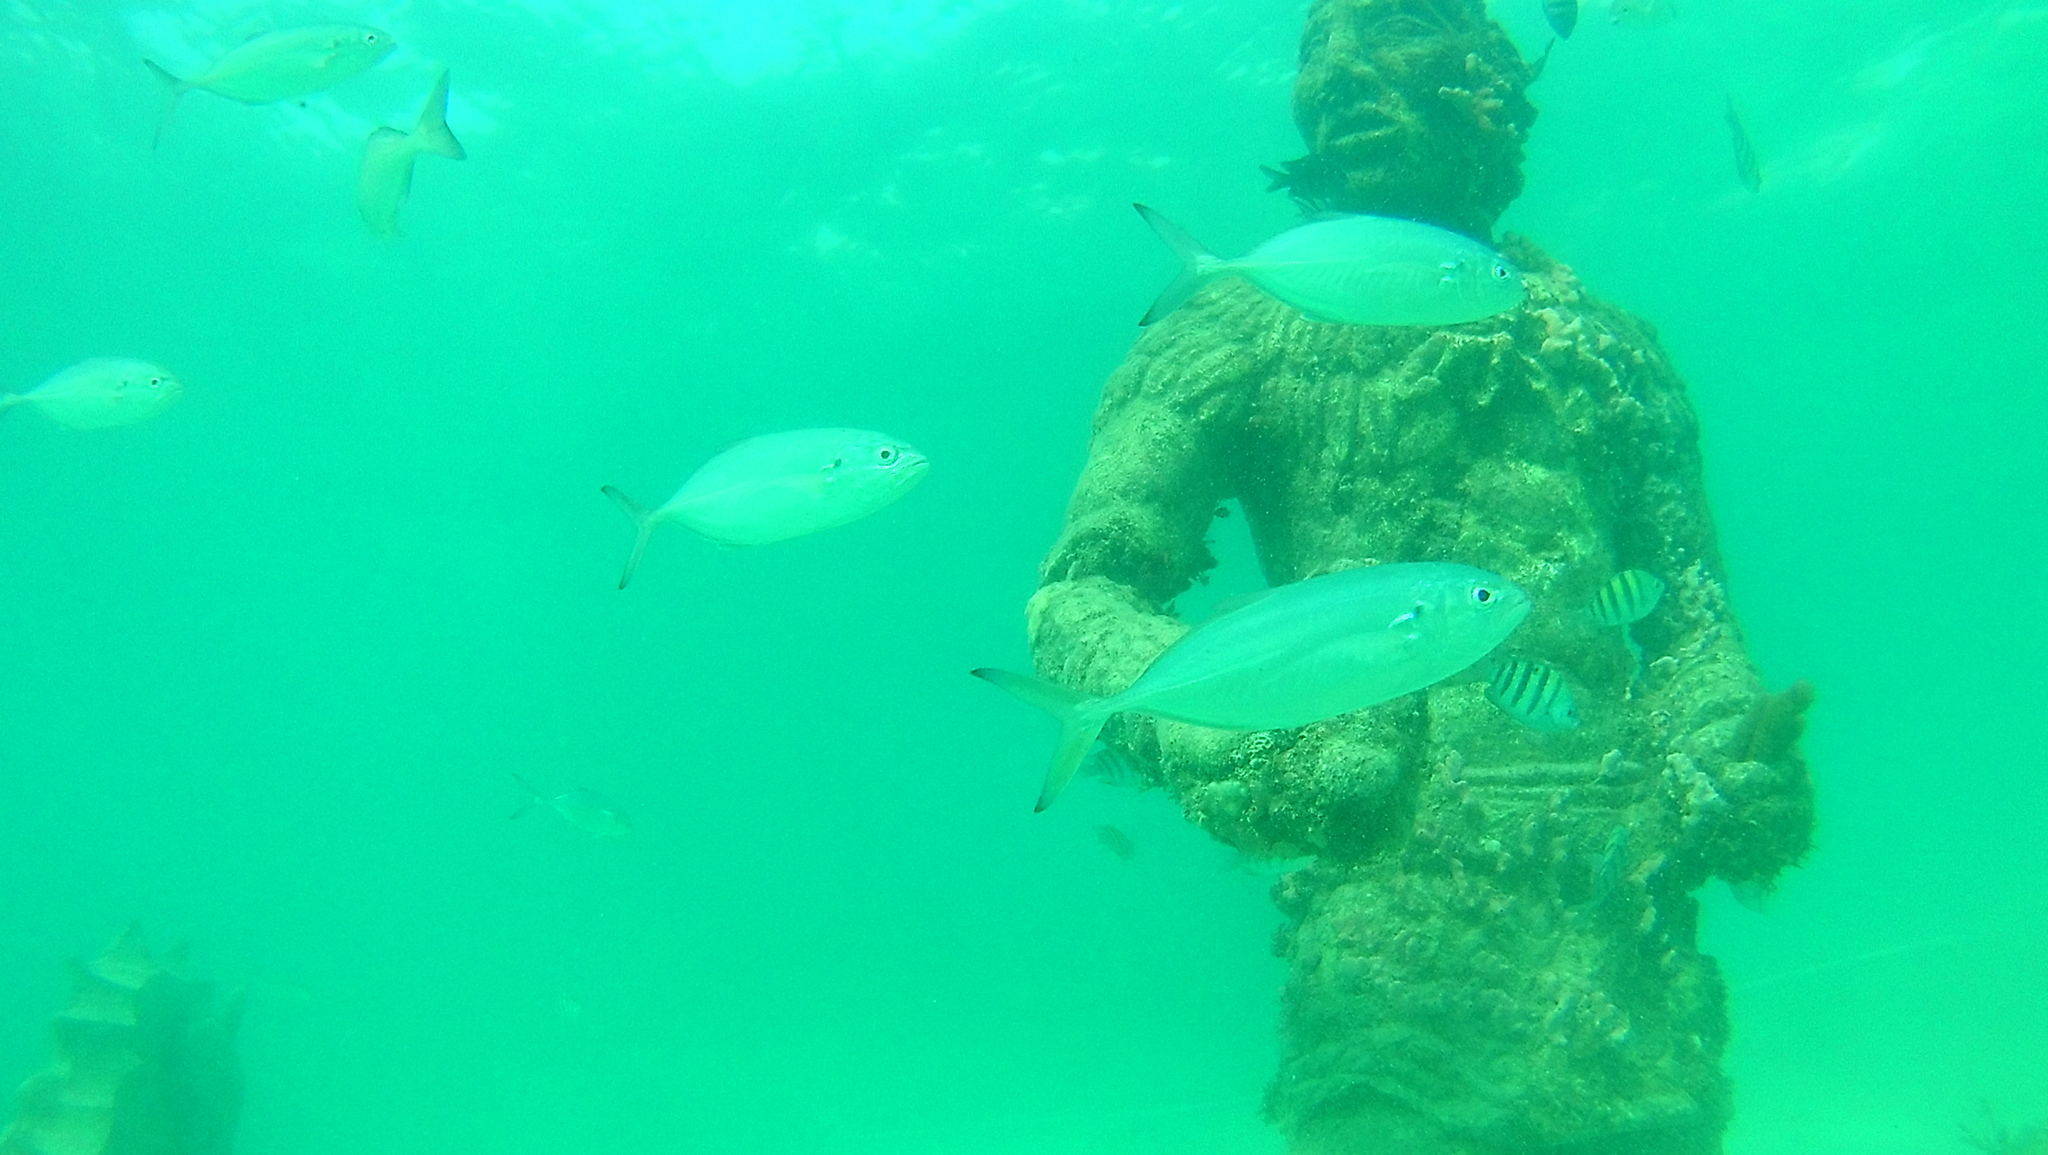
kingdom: Animalia
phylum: Chordata
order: Perciformes
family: Carangidae
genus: Caranx
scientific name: Caranx crysos
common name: Blue runner
